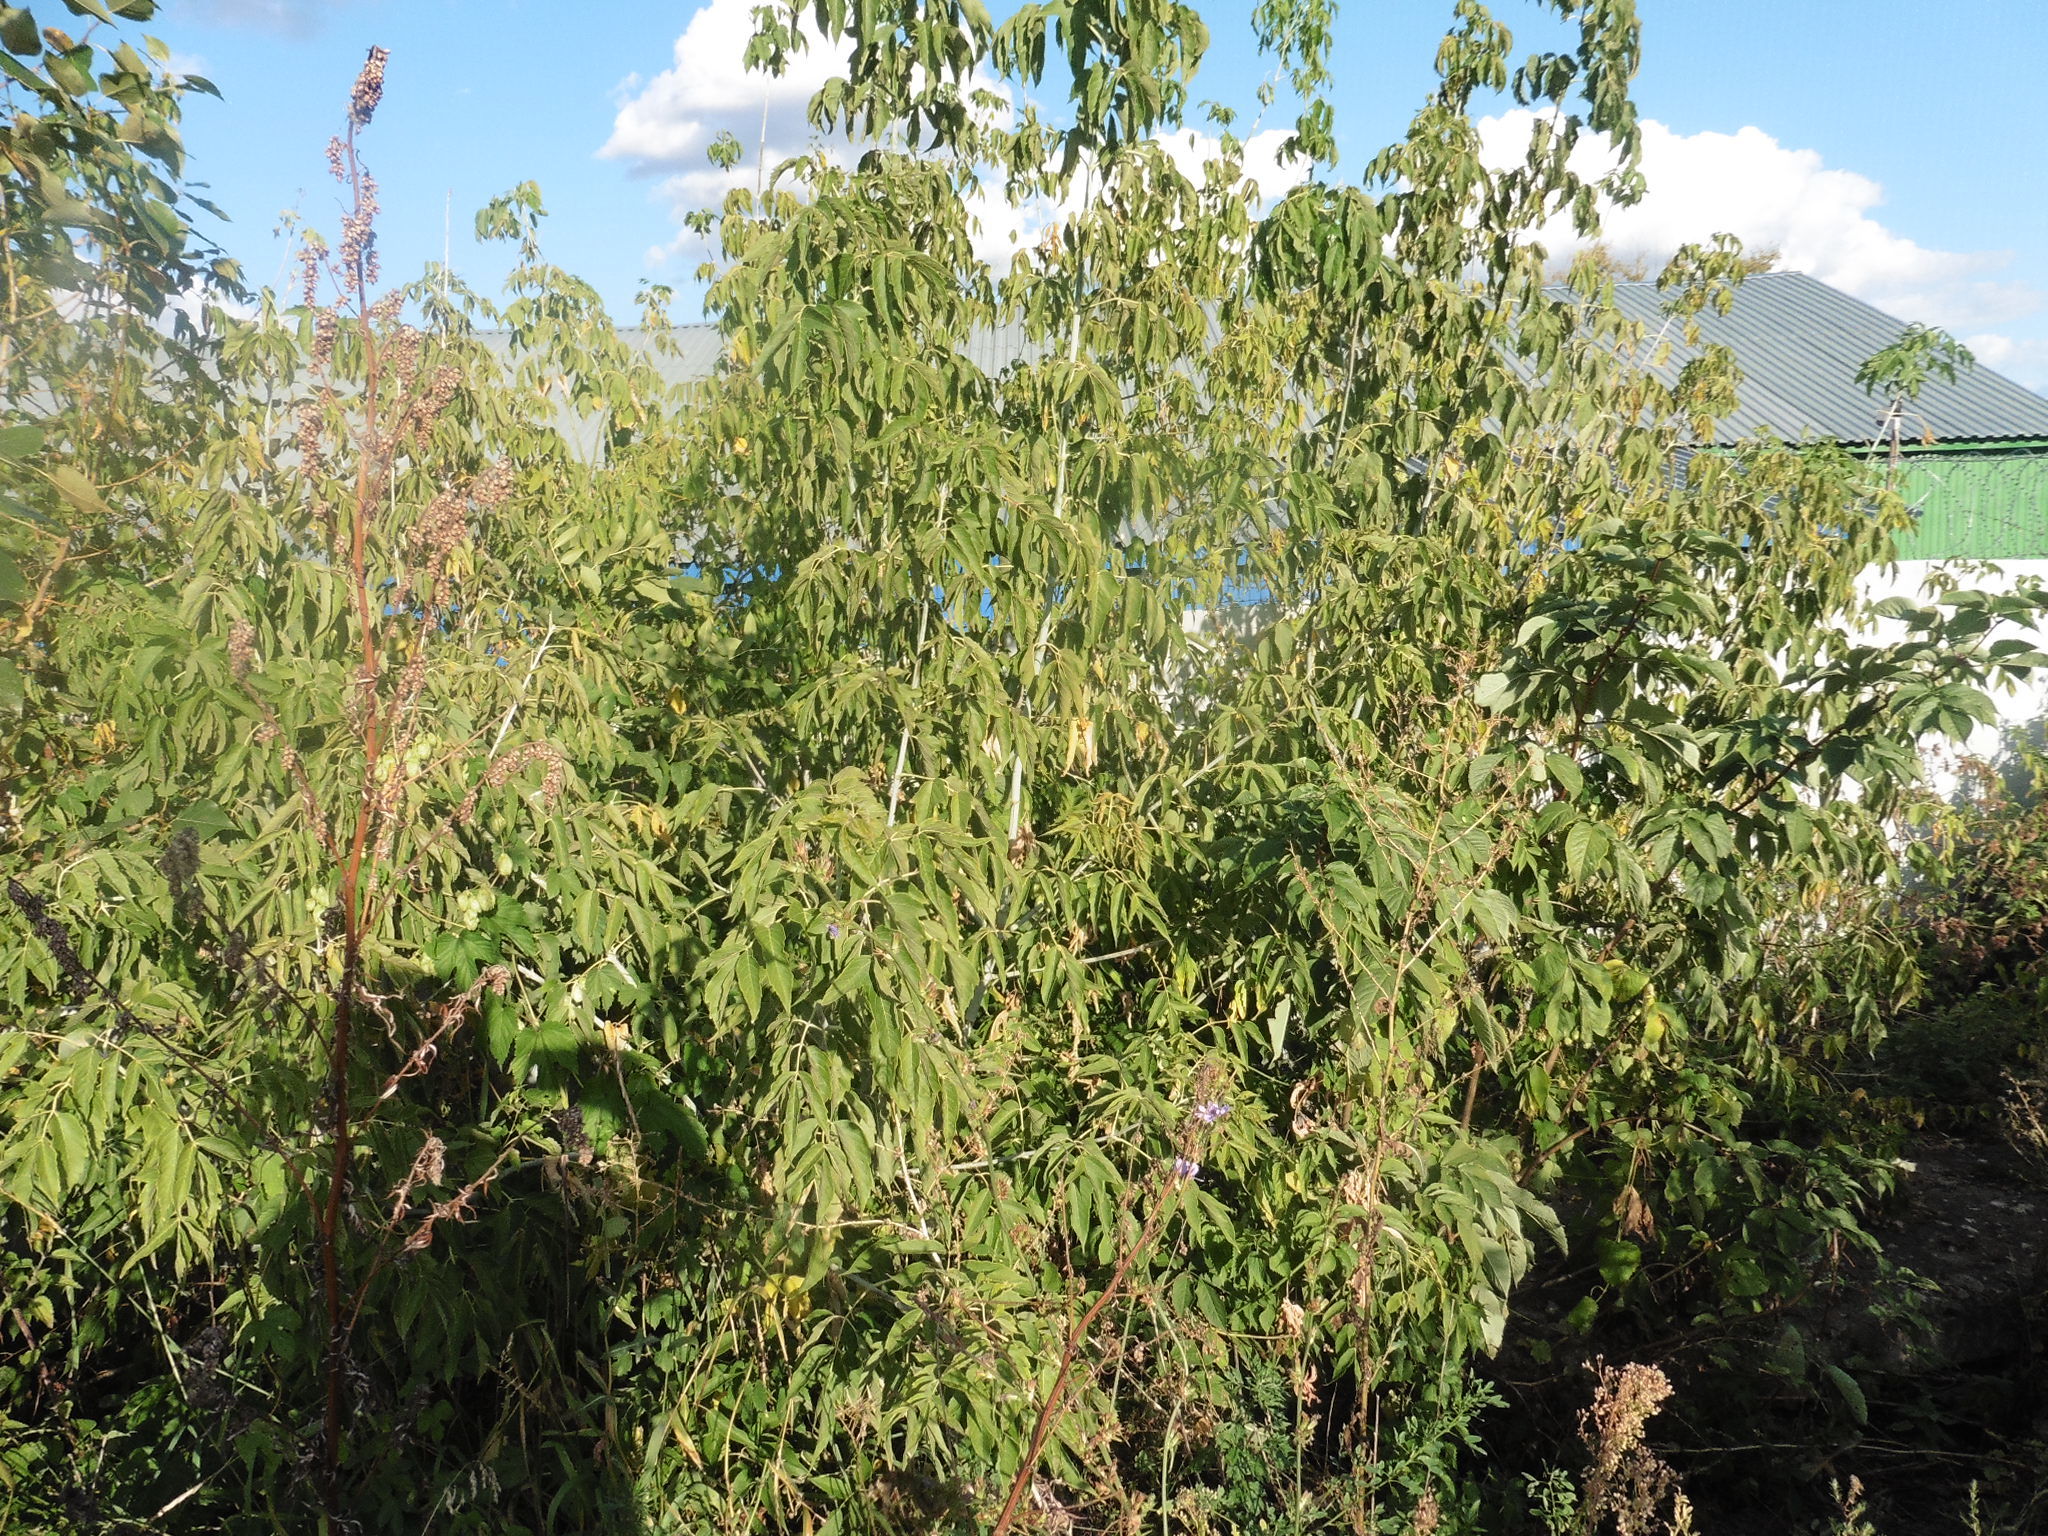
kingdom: Plantae
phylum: Tracheophyta
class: Magnoliopsida
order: Sapindales
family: Sapindaceae
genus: Acer
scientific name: Acer negundo
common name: Ashleaf maple
